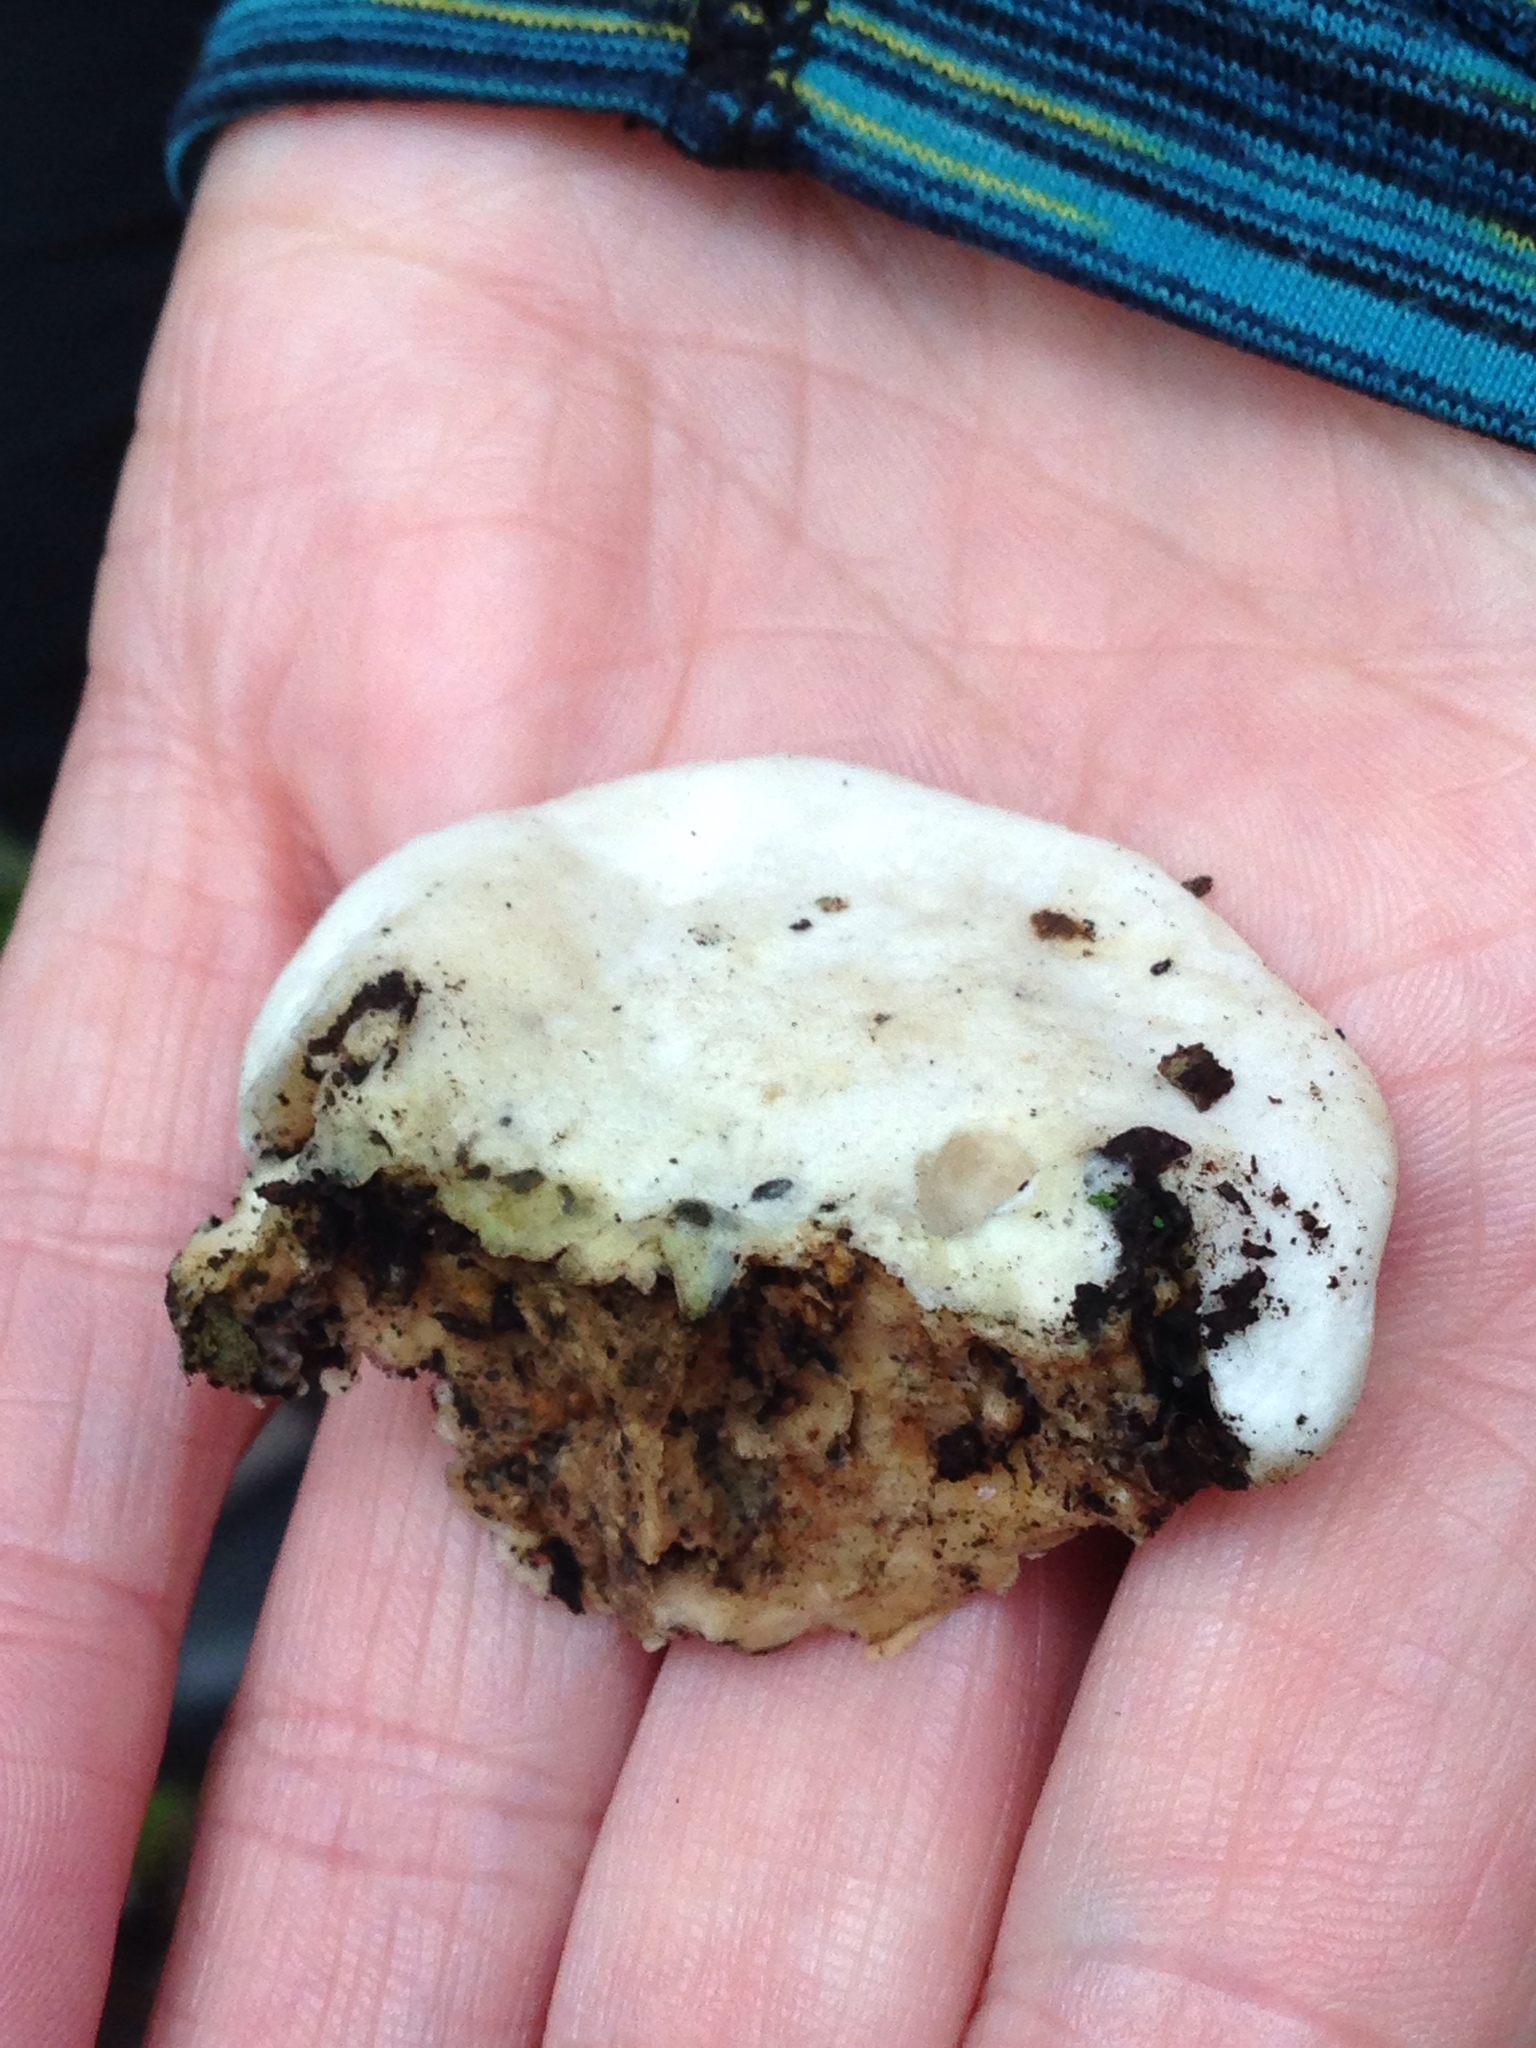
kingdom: Fungi
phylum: Basidiomycota
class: Agaricomycetes
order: Polyporales
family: Polyporaceae
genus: Cyanosporus
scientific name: Cyanosporus livens
